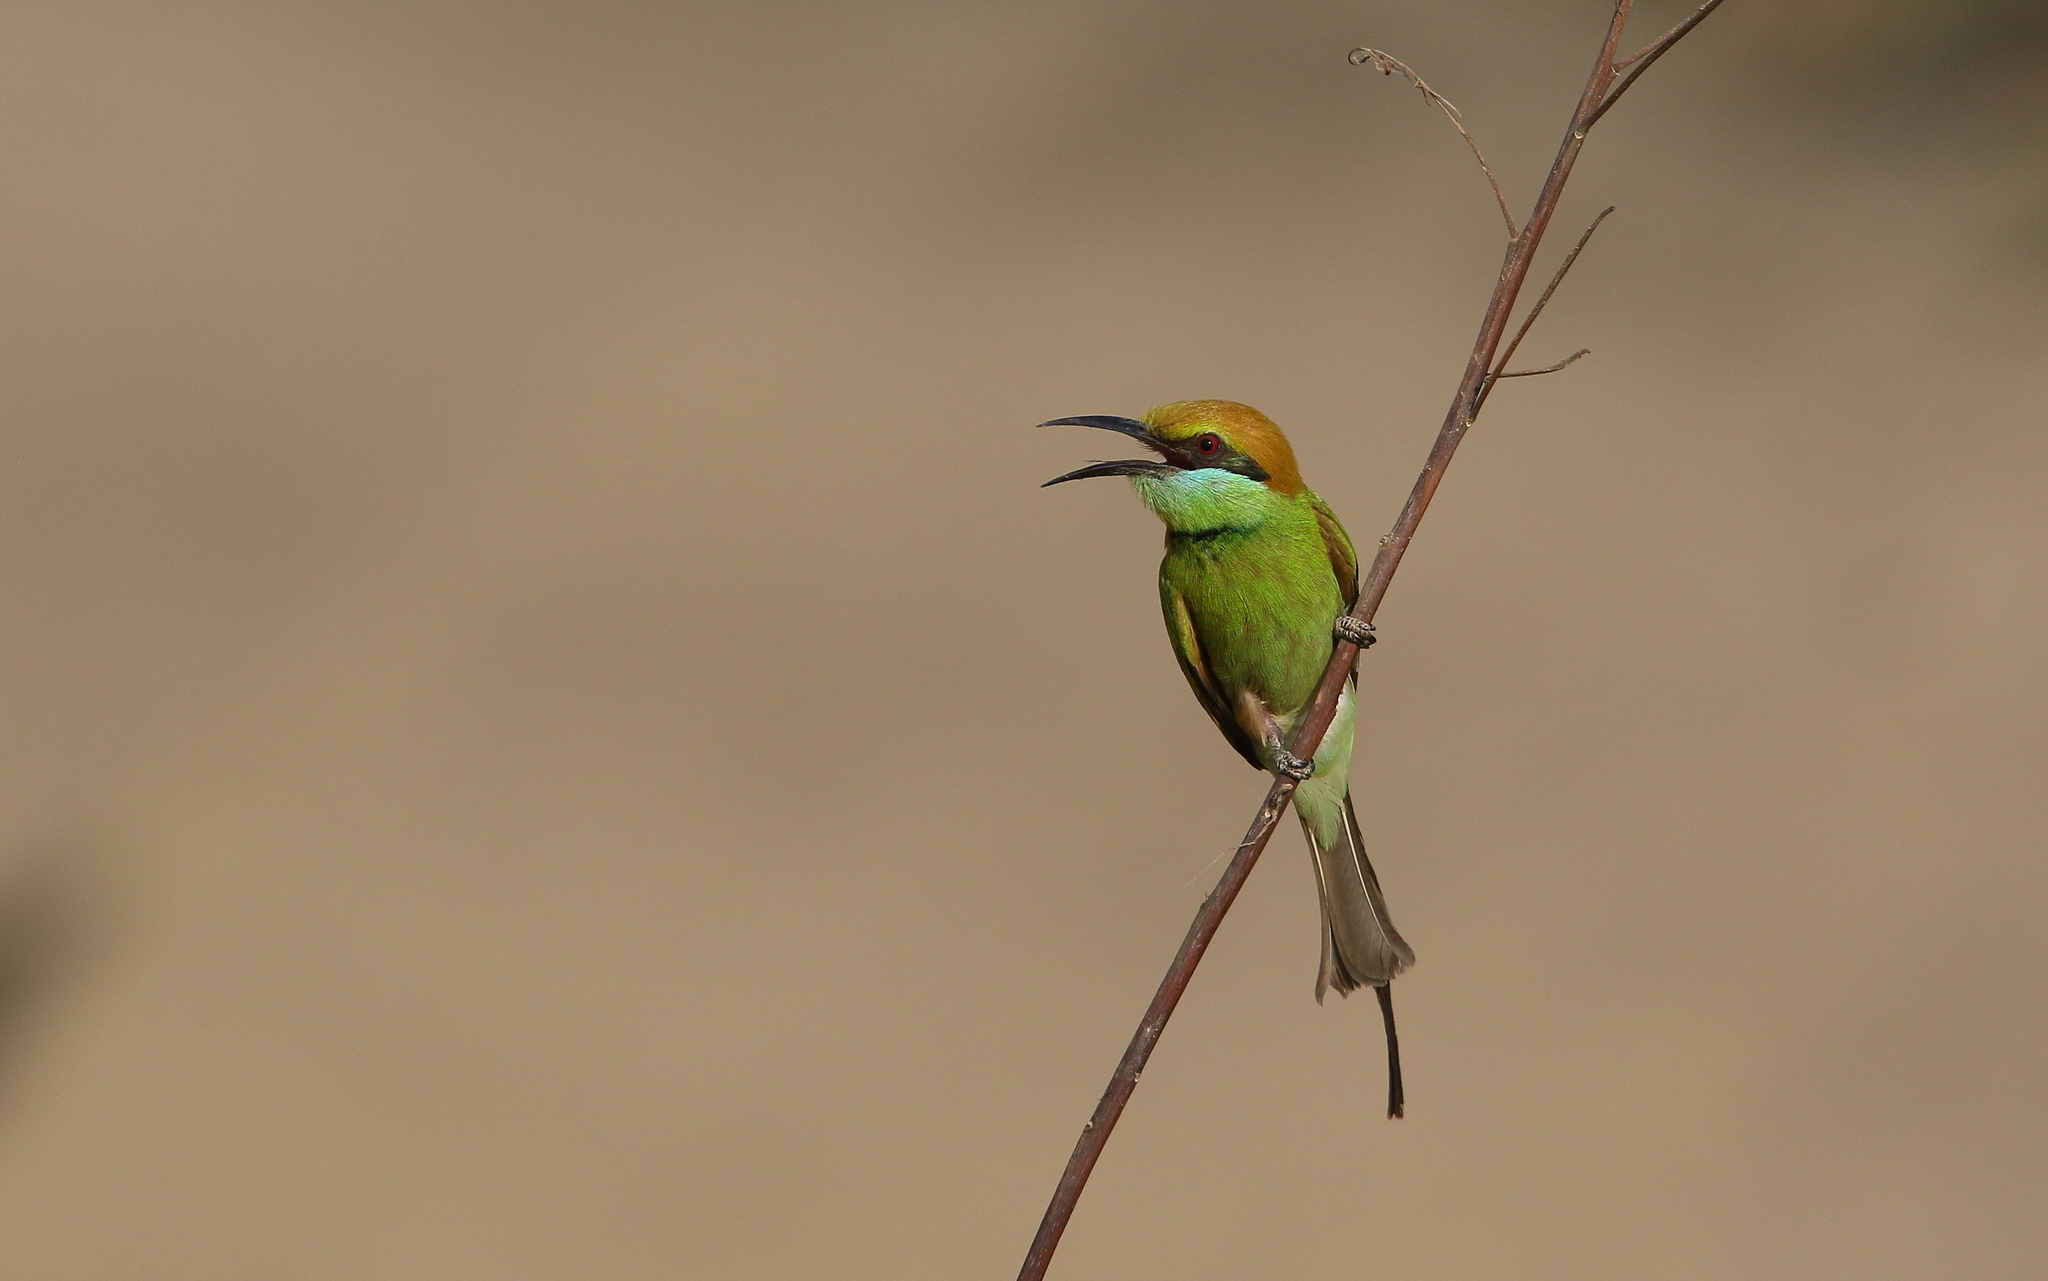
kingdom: Animalia
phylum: Chordata
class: Aves
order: Coraciiformes
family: Meropidae
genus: Merops
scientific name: Merops orientalis
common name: Green bee-eater
